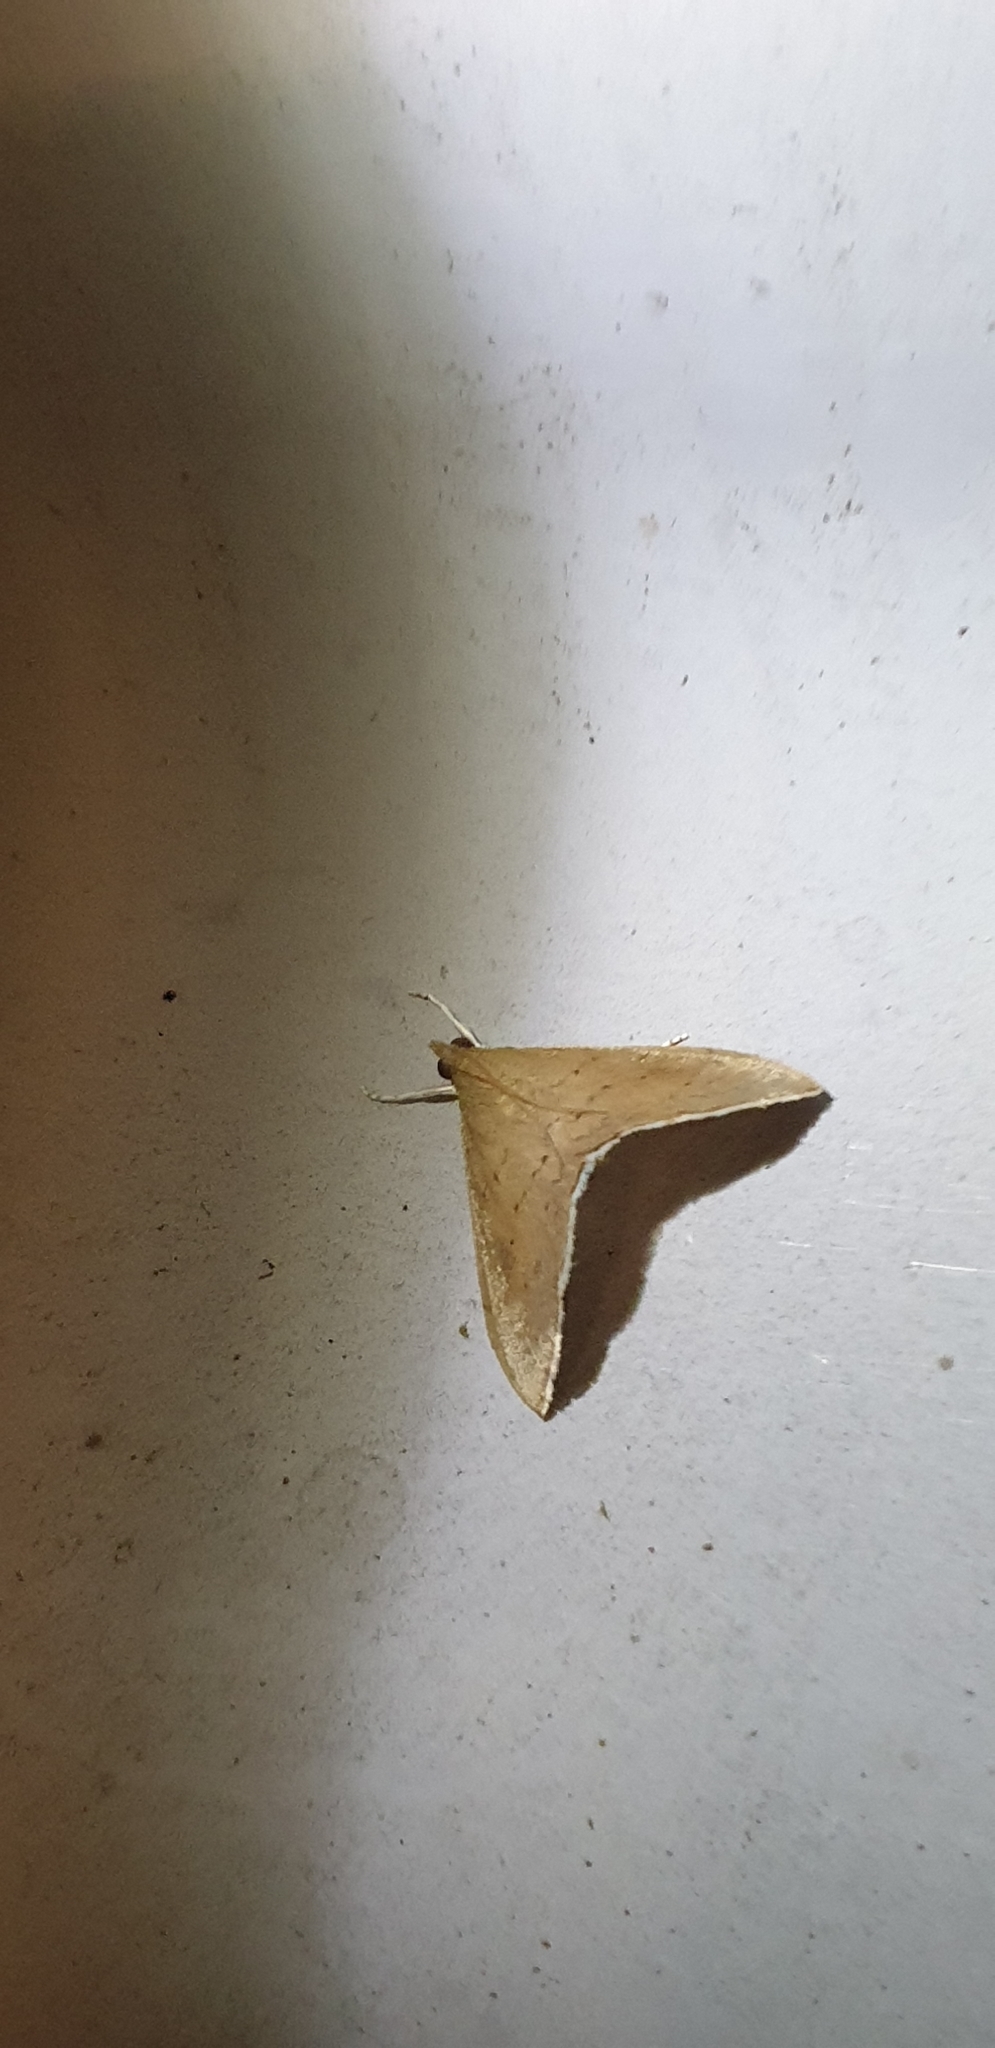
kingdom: Animalia
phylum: Arthropoda
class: Insecta
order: Lepidoptera
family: Crambidae
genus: Hyalobathra
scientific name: Hyalobathra archeleuca
